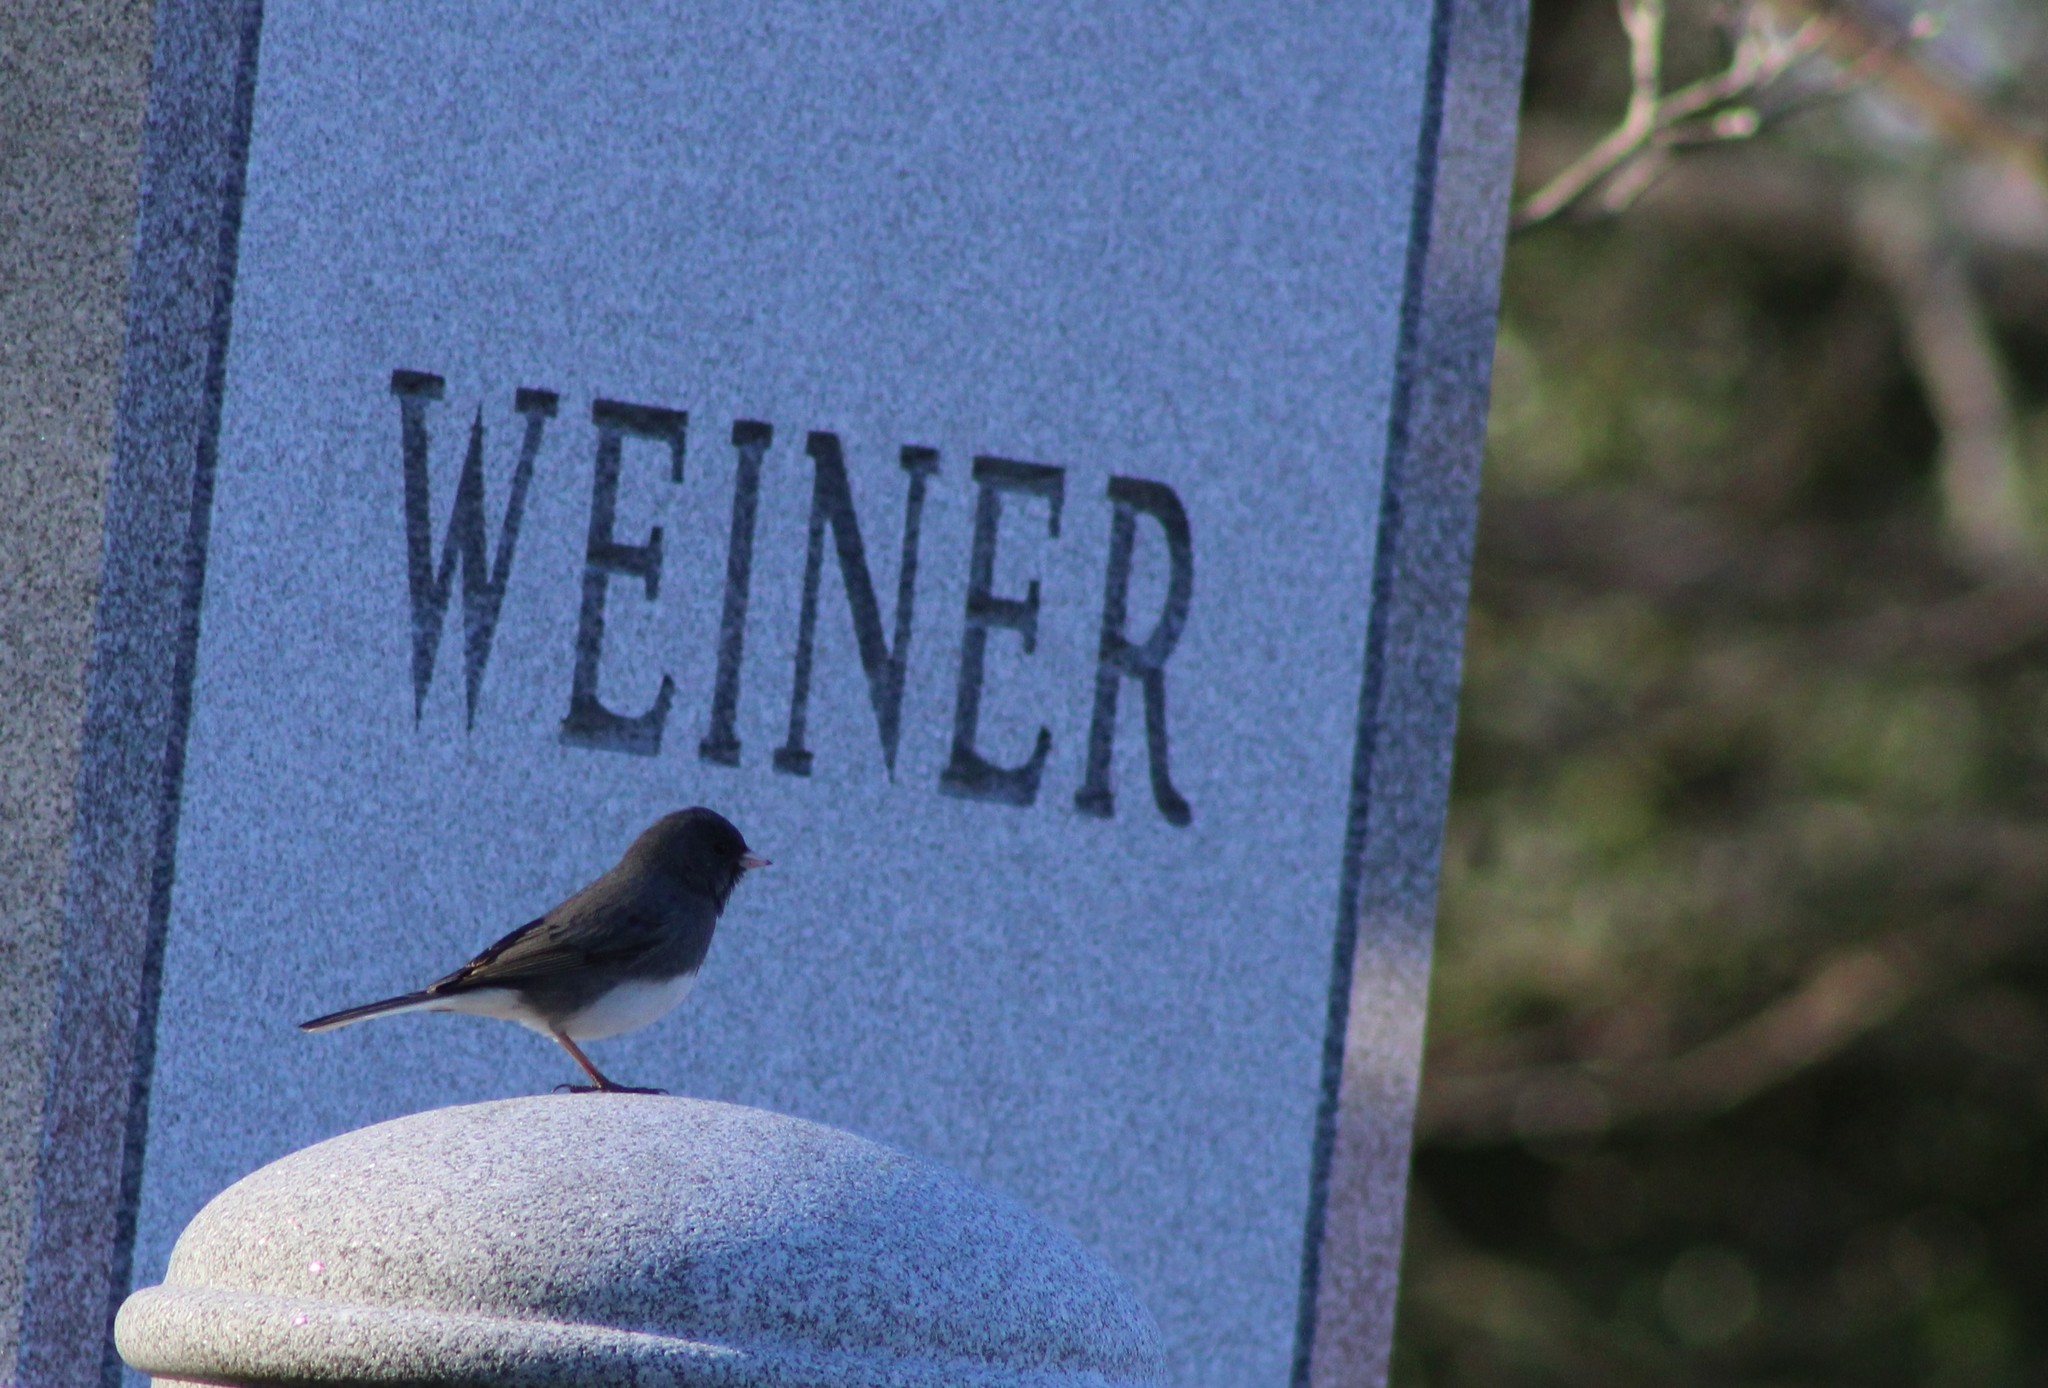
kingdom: Animalia
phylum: Chordata
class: Aves
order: Passeriformes
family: Passerellidae
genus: Junco
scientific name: Junco hyemalis
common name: Dark-eyed junco
